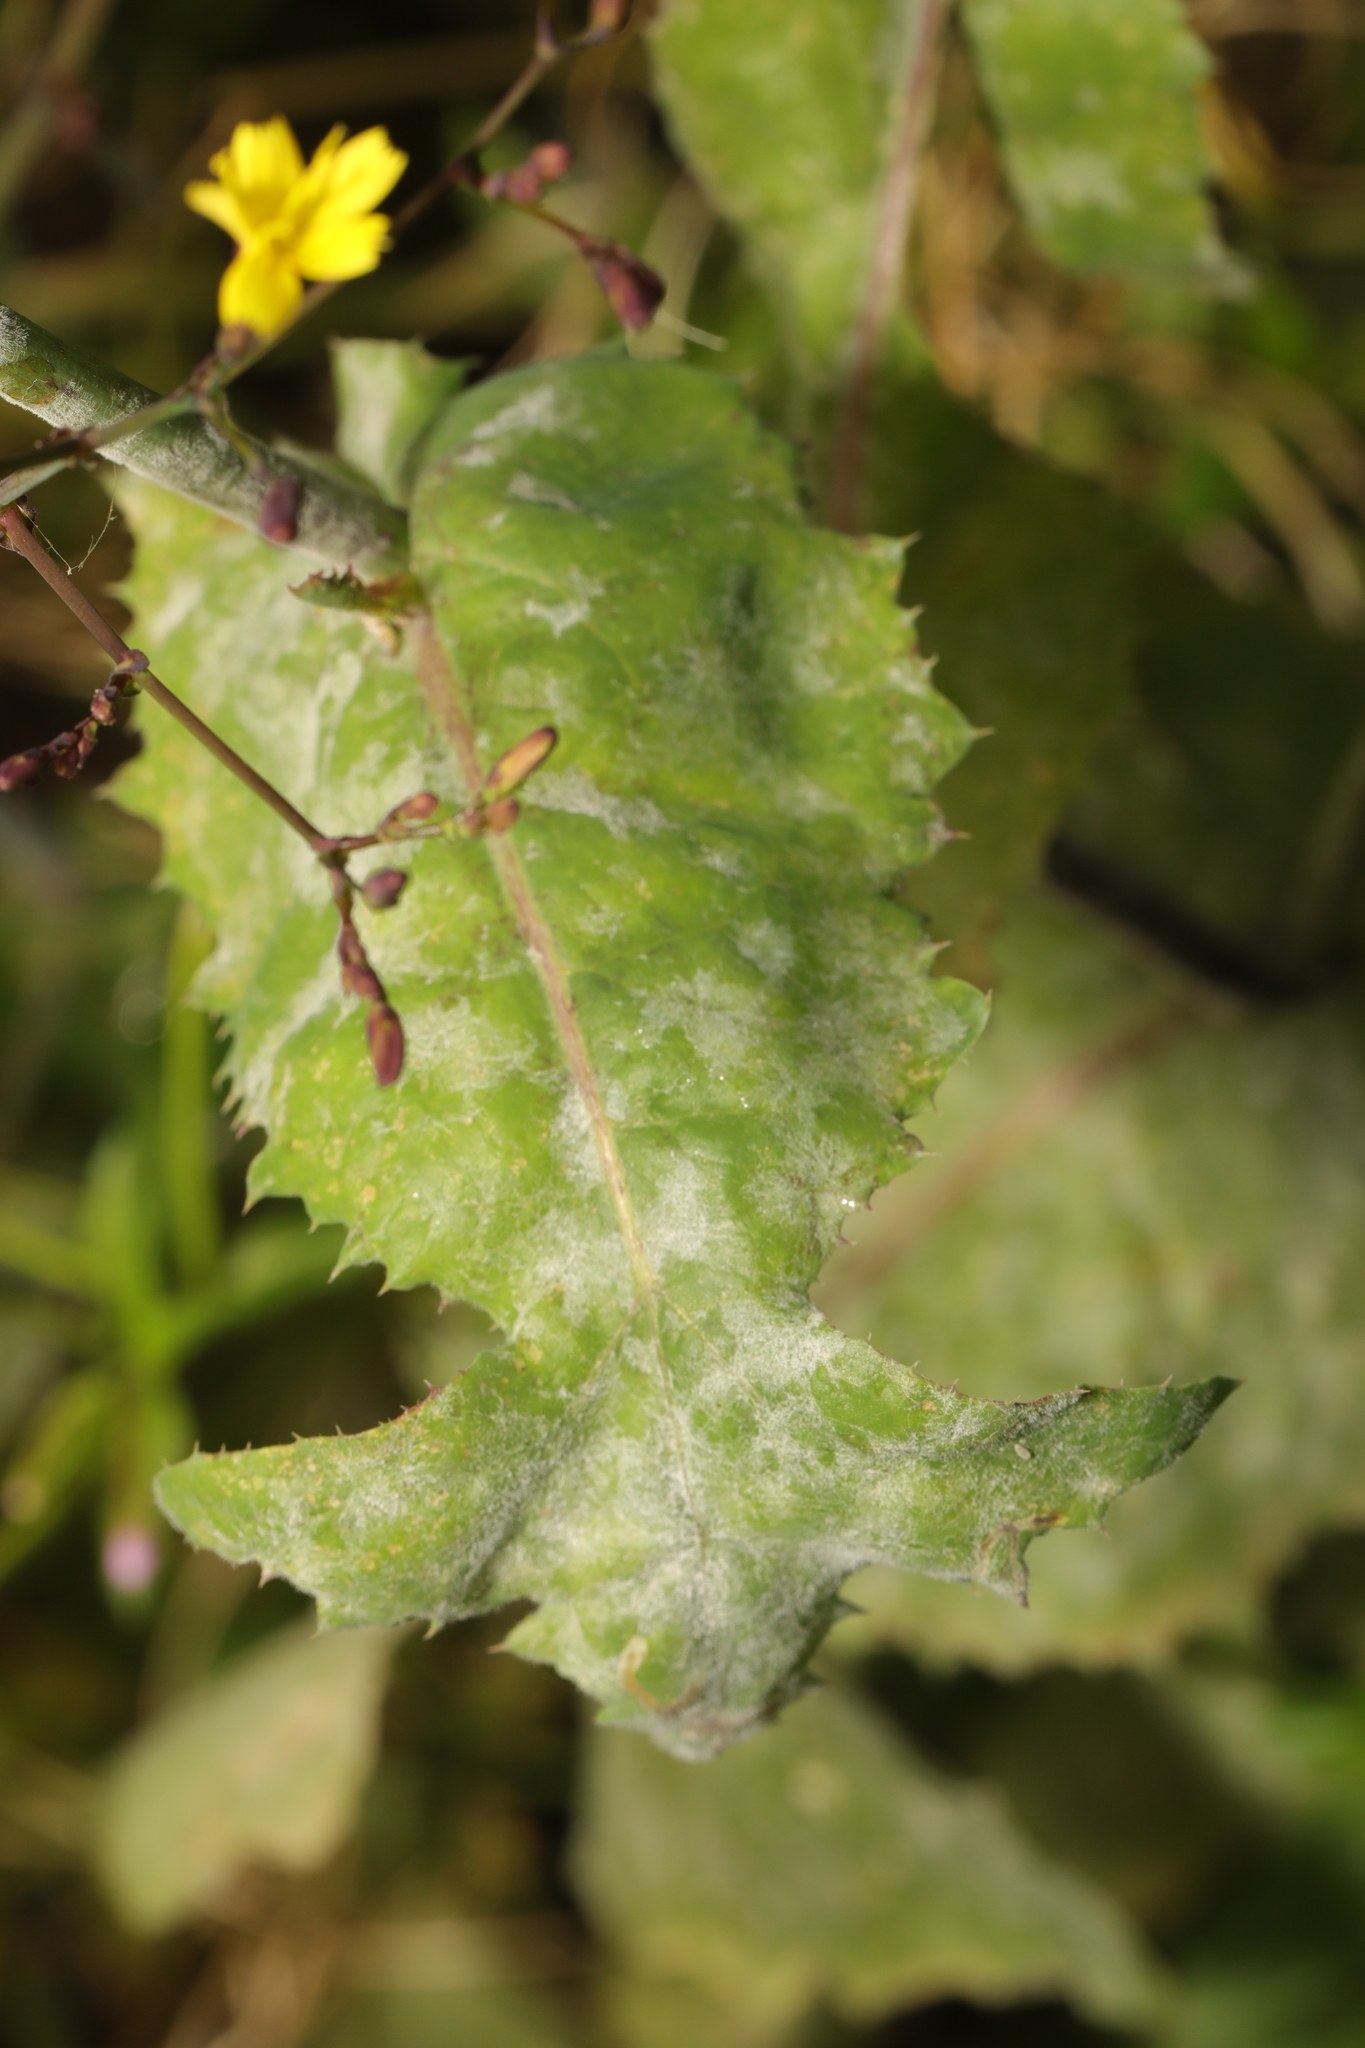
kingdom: Fungi
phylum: Ascomycota
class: Leotiomycetes
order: Helotiales
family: Erysiphaceae
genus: Golovinomyces
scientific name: Golovinomyces sonchicola
